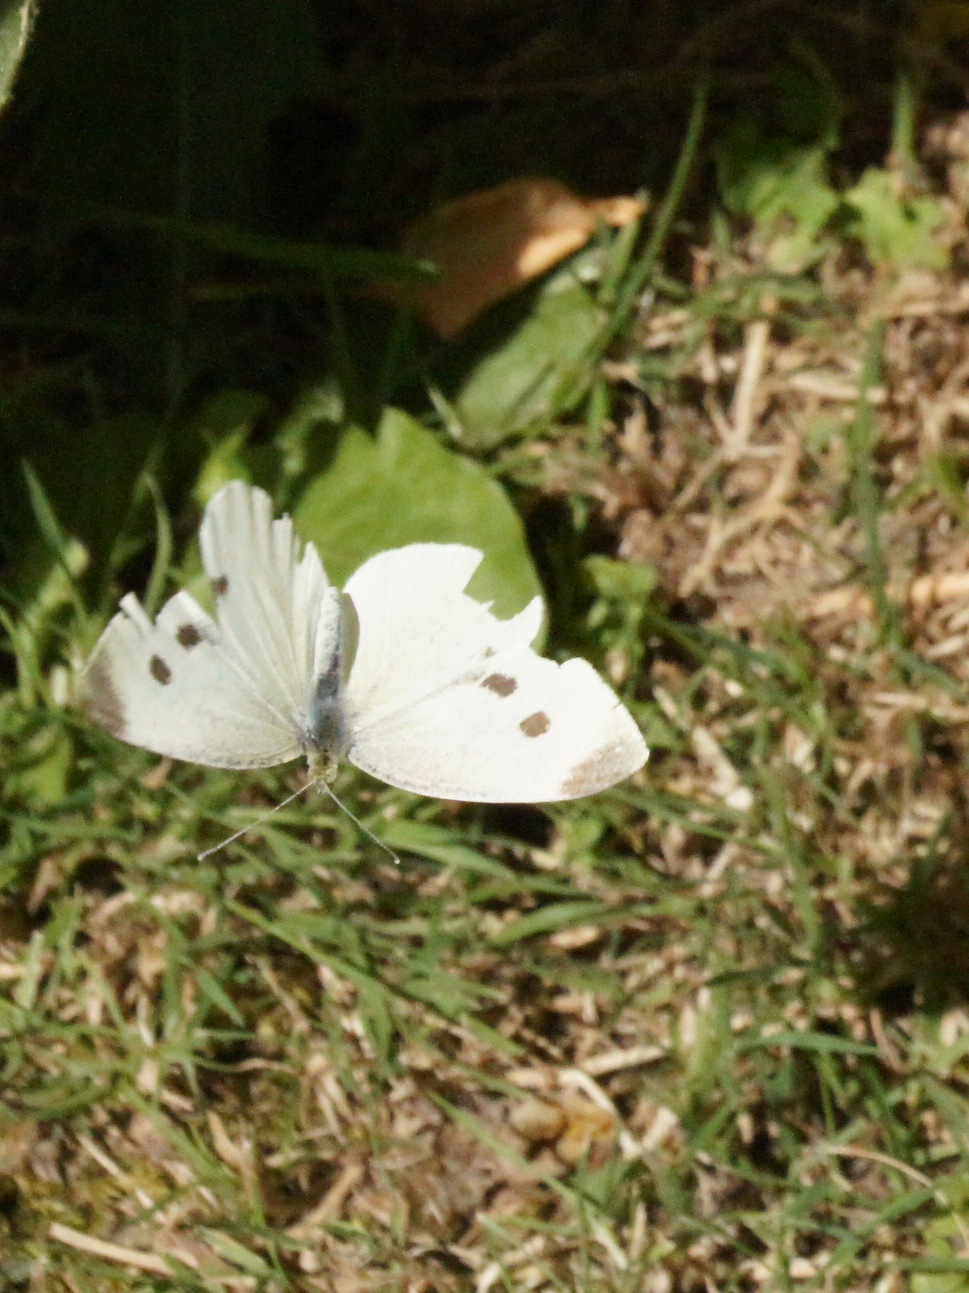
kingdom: Animalia
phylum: Arthropoda
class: Insecta
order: Lepidoptera
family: Pieridae
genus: Pieris
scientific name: Pieris rapae
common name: Small white
